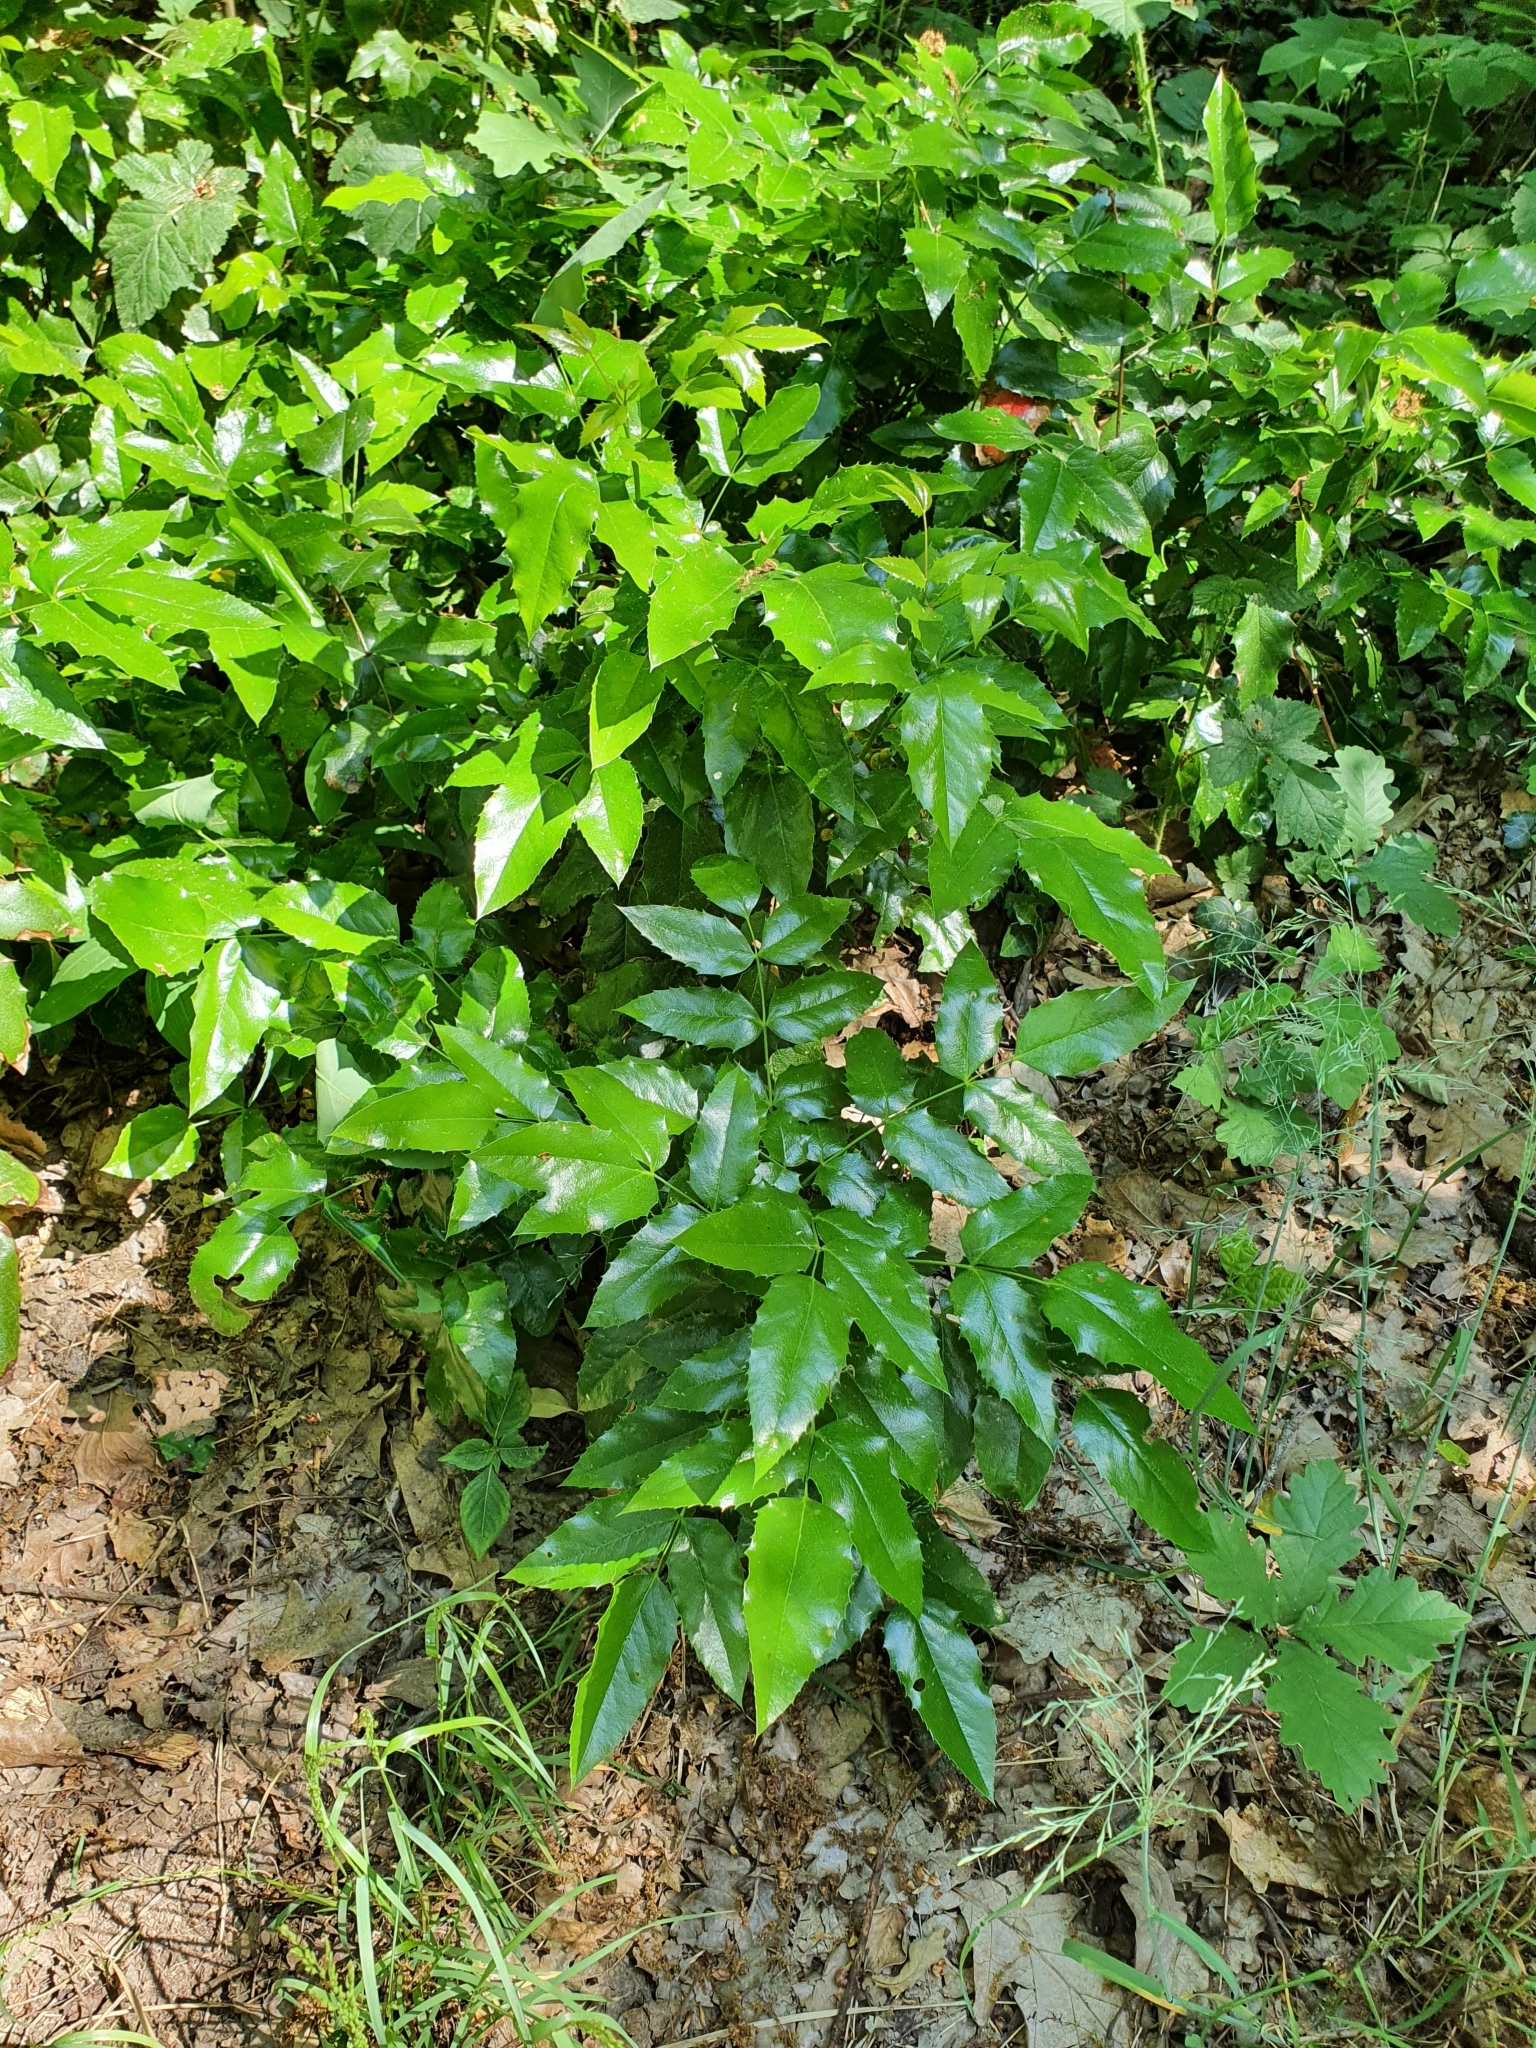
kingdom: Plantae
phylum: Tracheophyta
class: Magnoliopsida
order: Ranunculales
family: Berberidaceae
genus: Mahonia
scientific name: Mahonia aquifolium
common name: Oregon-grape
